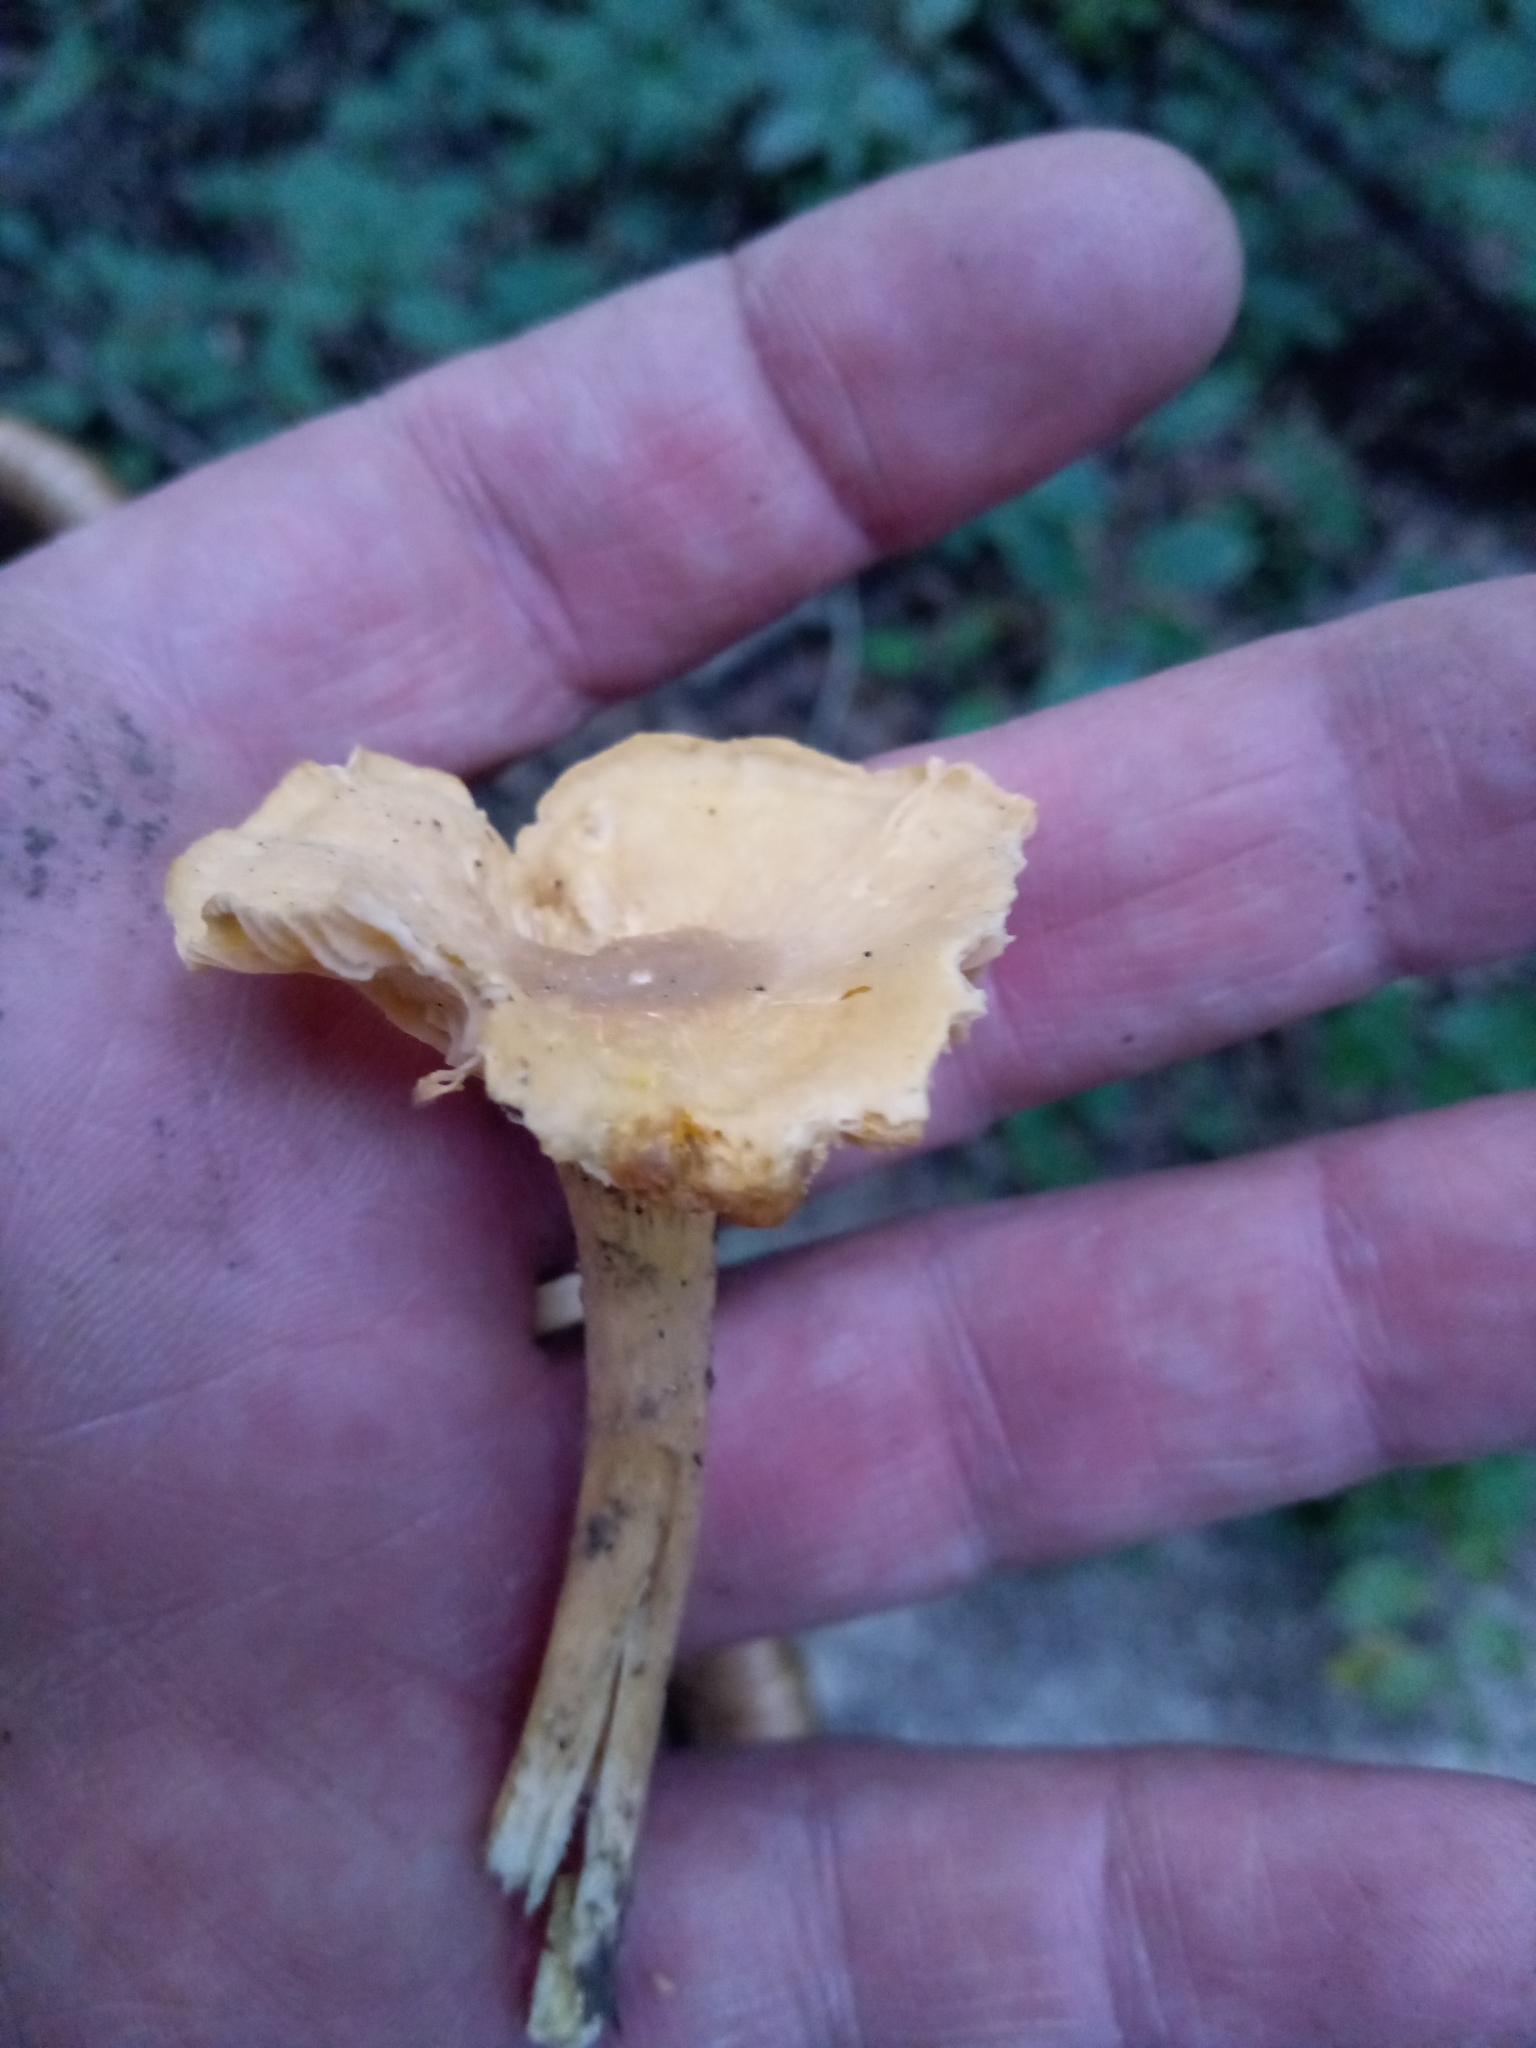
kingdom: Fungi
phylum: Basidiomycota
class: Agaricomycetes
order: Cantharellales
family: Hydnaceae
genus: Cantharellus
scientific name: Cantharellus appalachiensis
